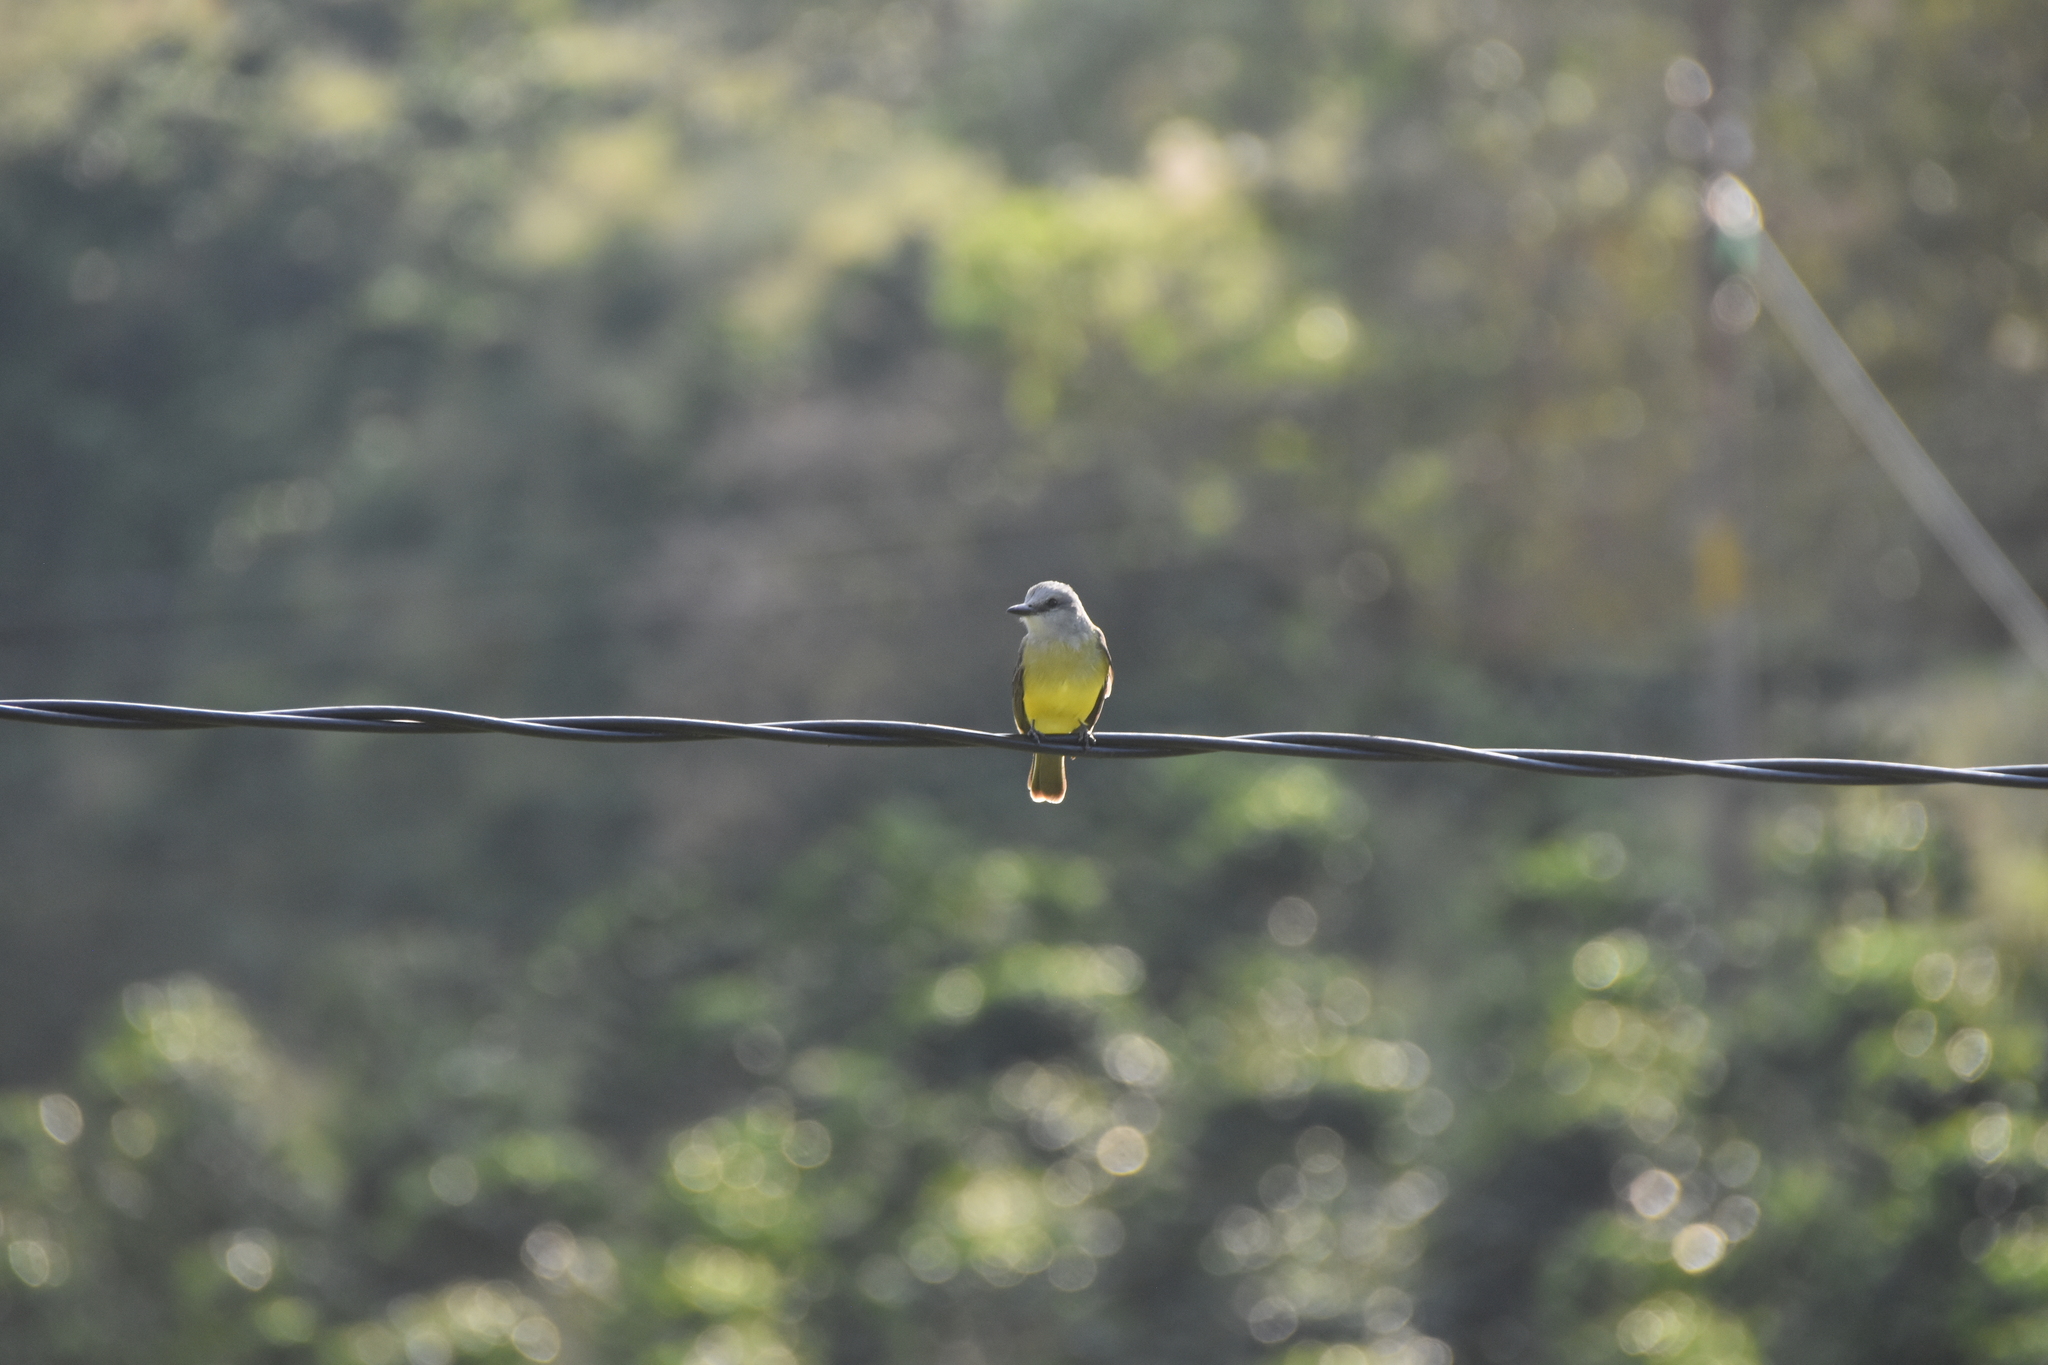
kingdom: Animalia
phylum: Chordata
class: Aves
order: Passeriformes
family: Tyrannidae
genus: Tyrannus
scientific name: Tyrannus melancholicus
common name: Tropical kingbird
